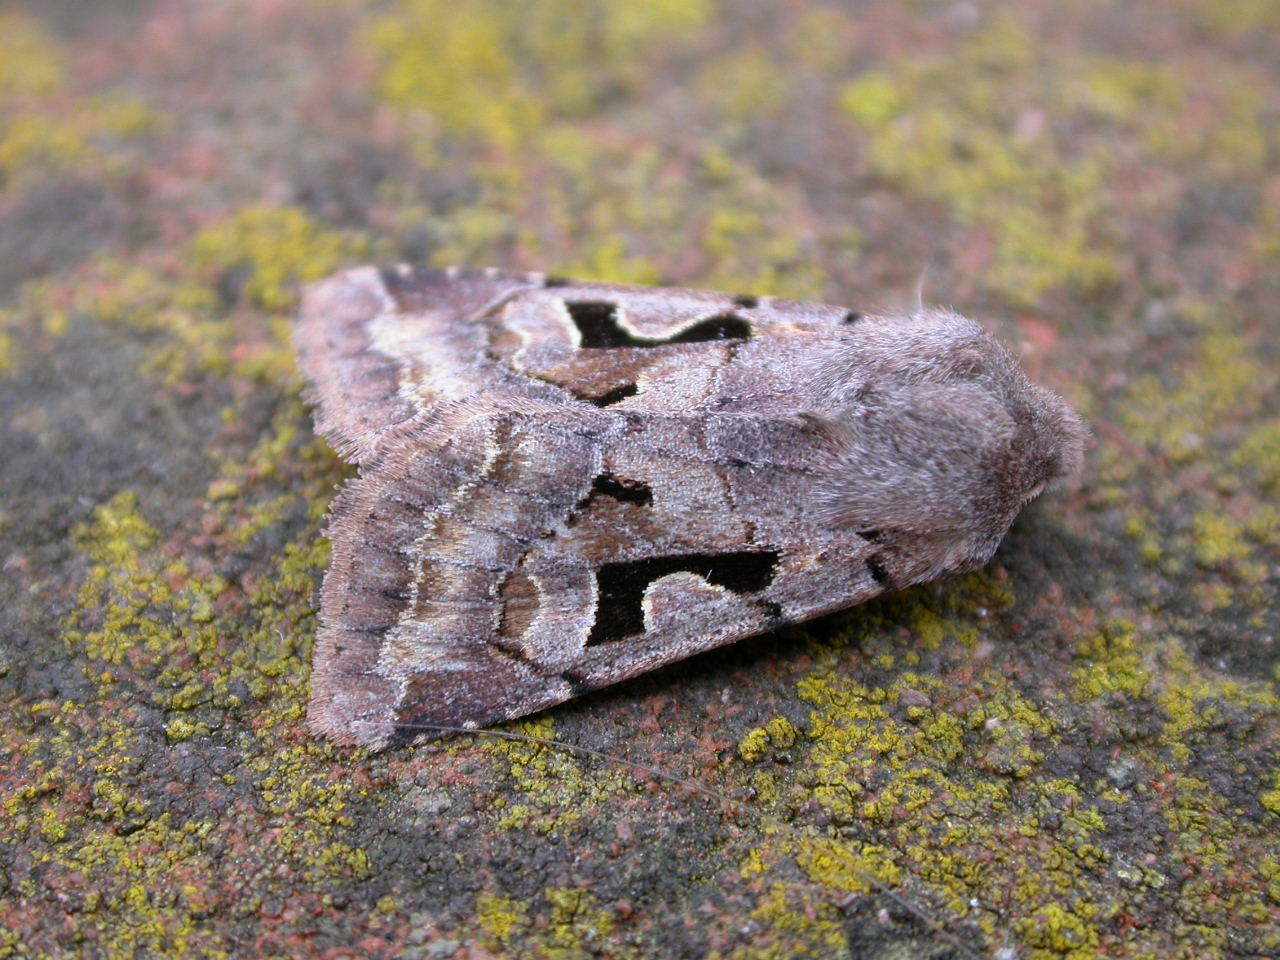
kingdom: Animalia
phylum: Arthropoda
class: Insecta
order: Lepidoptera
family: Noctuidae
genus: Orthosia
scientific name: Orthosia gothica
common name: Hebrew character
